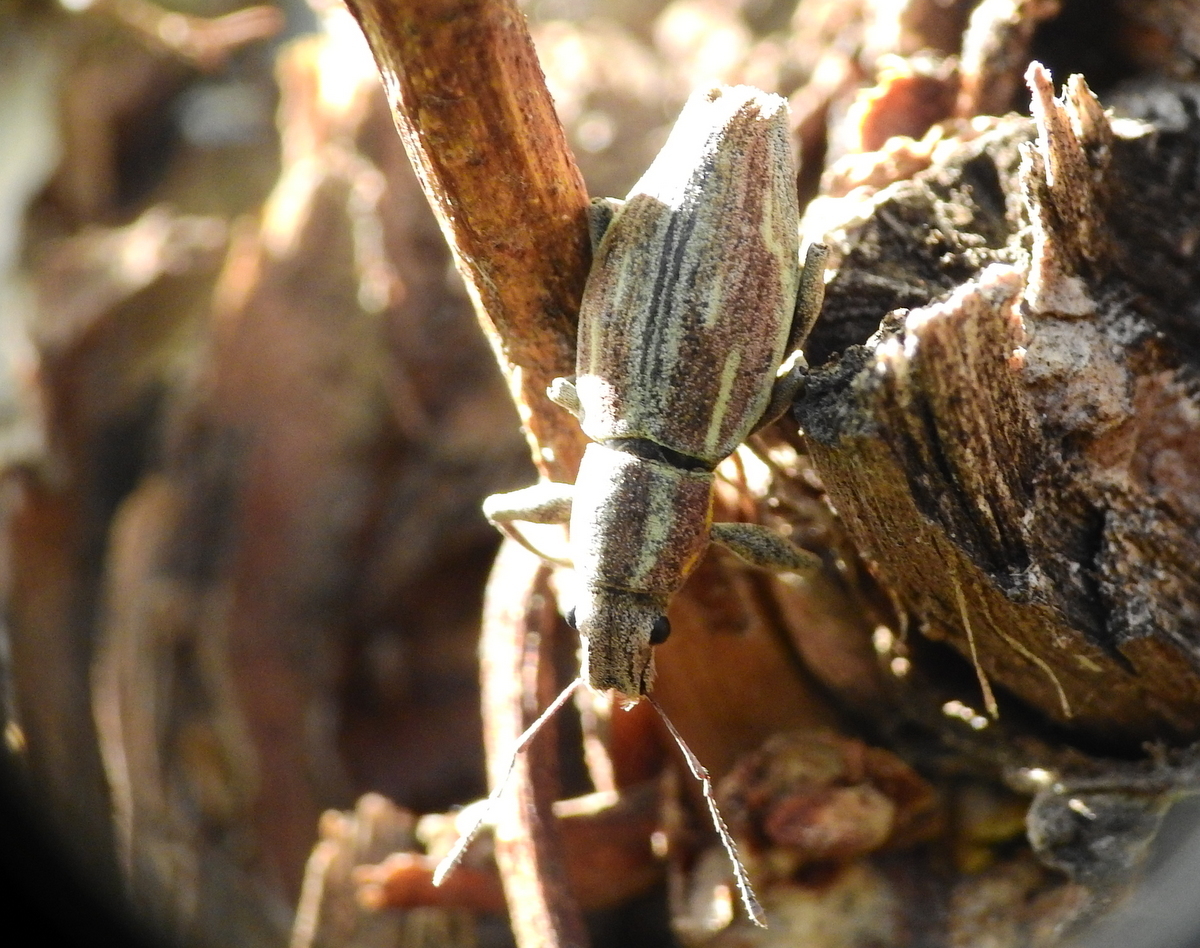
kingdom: Animalia
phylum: Arthropoda
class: Insecta
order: Coleoptera
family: Curculionidae
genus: Naupactus
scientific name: Naupactus xanthographus
